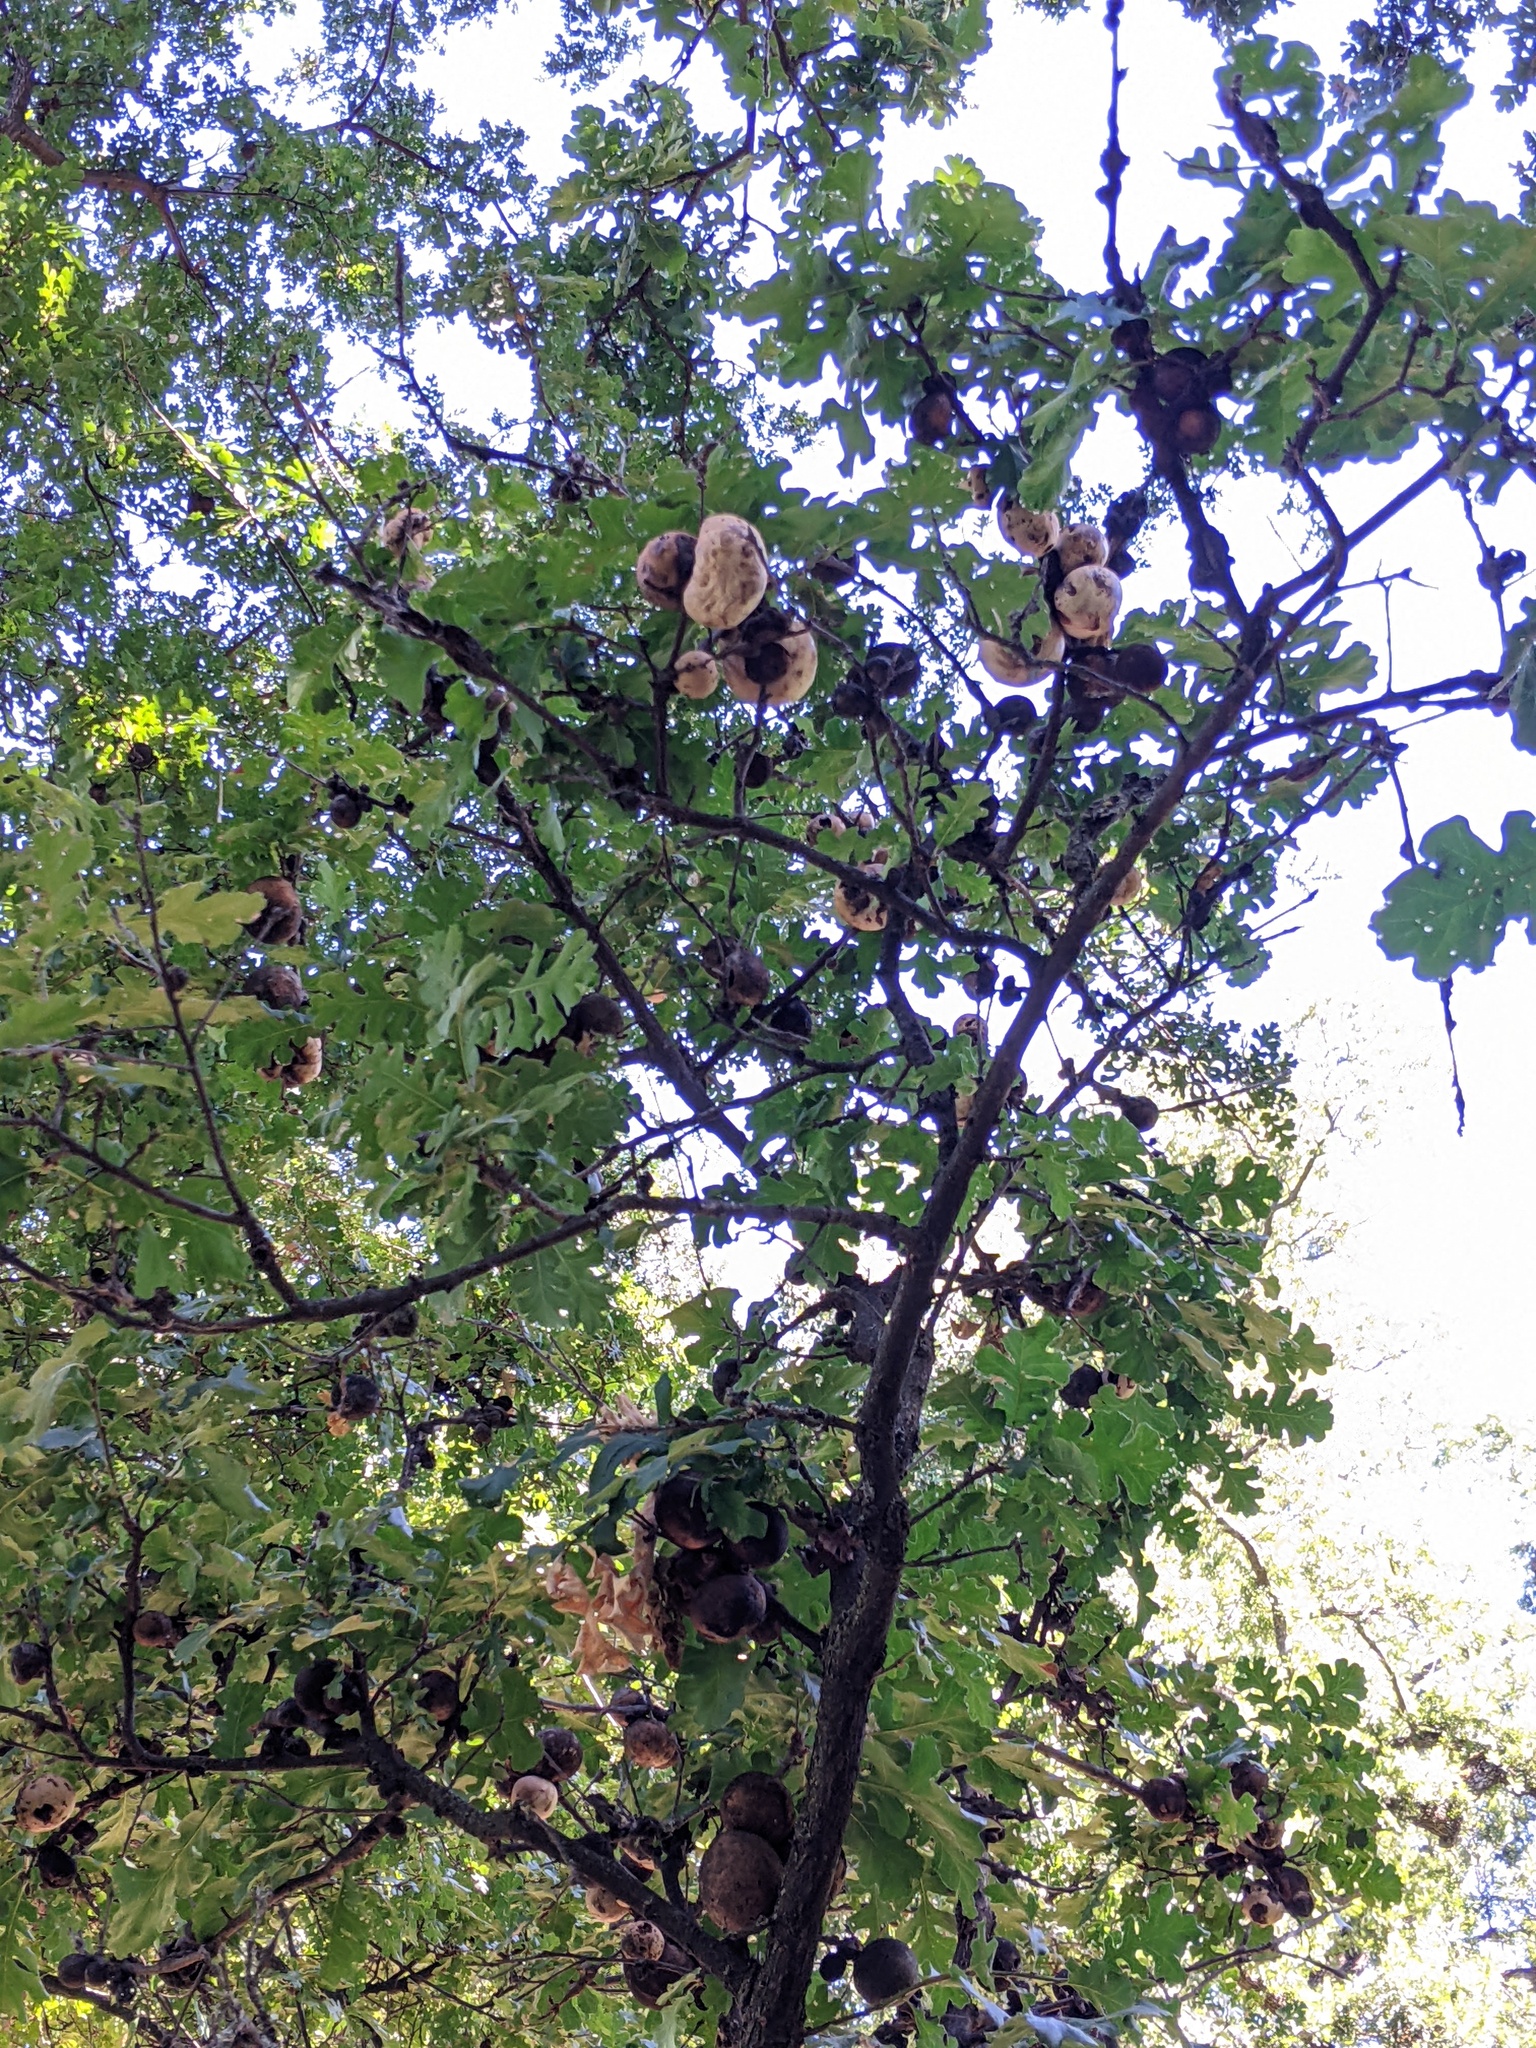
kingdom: Animalia
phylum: Arthropoda
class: Insecta
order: Hymenoptera
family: Cynipidae
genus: Andricus
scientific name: Andricus quercuscalifornicus
